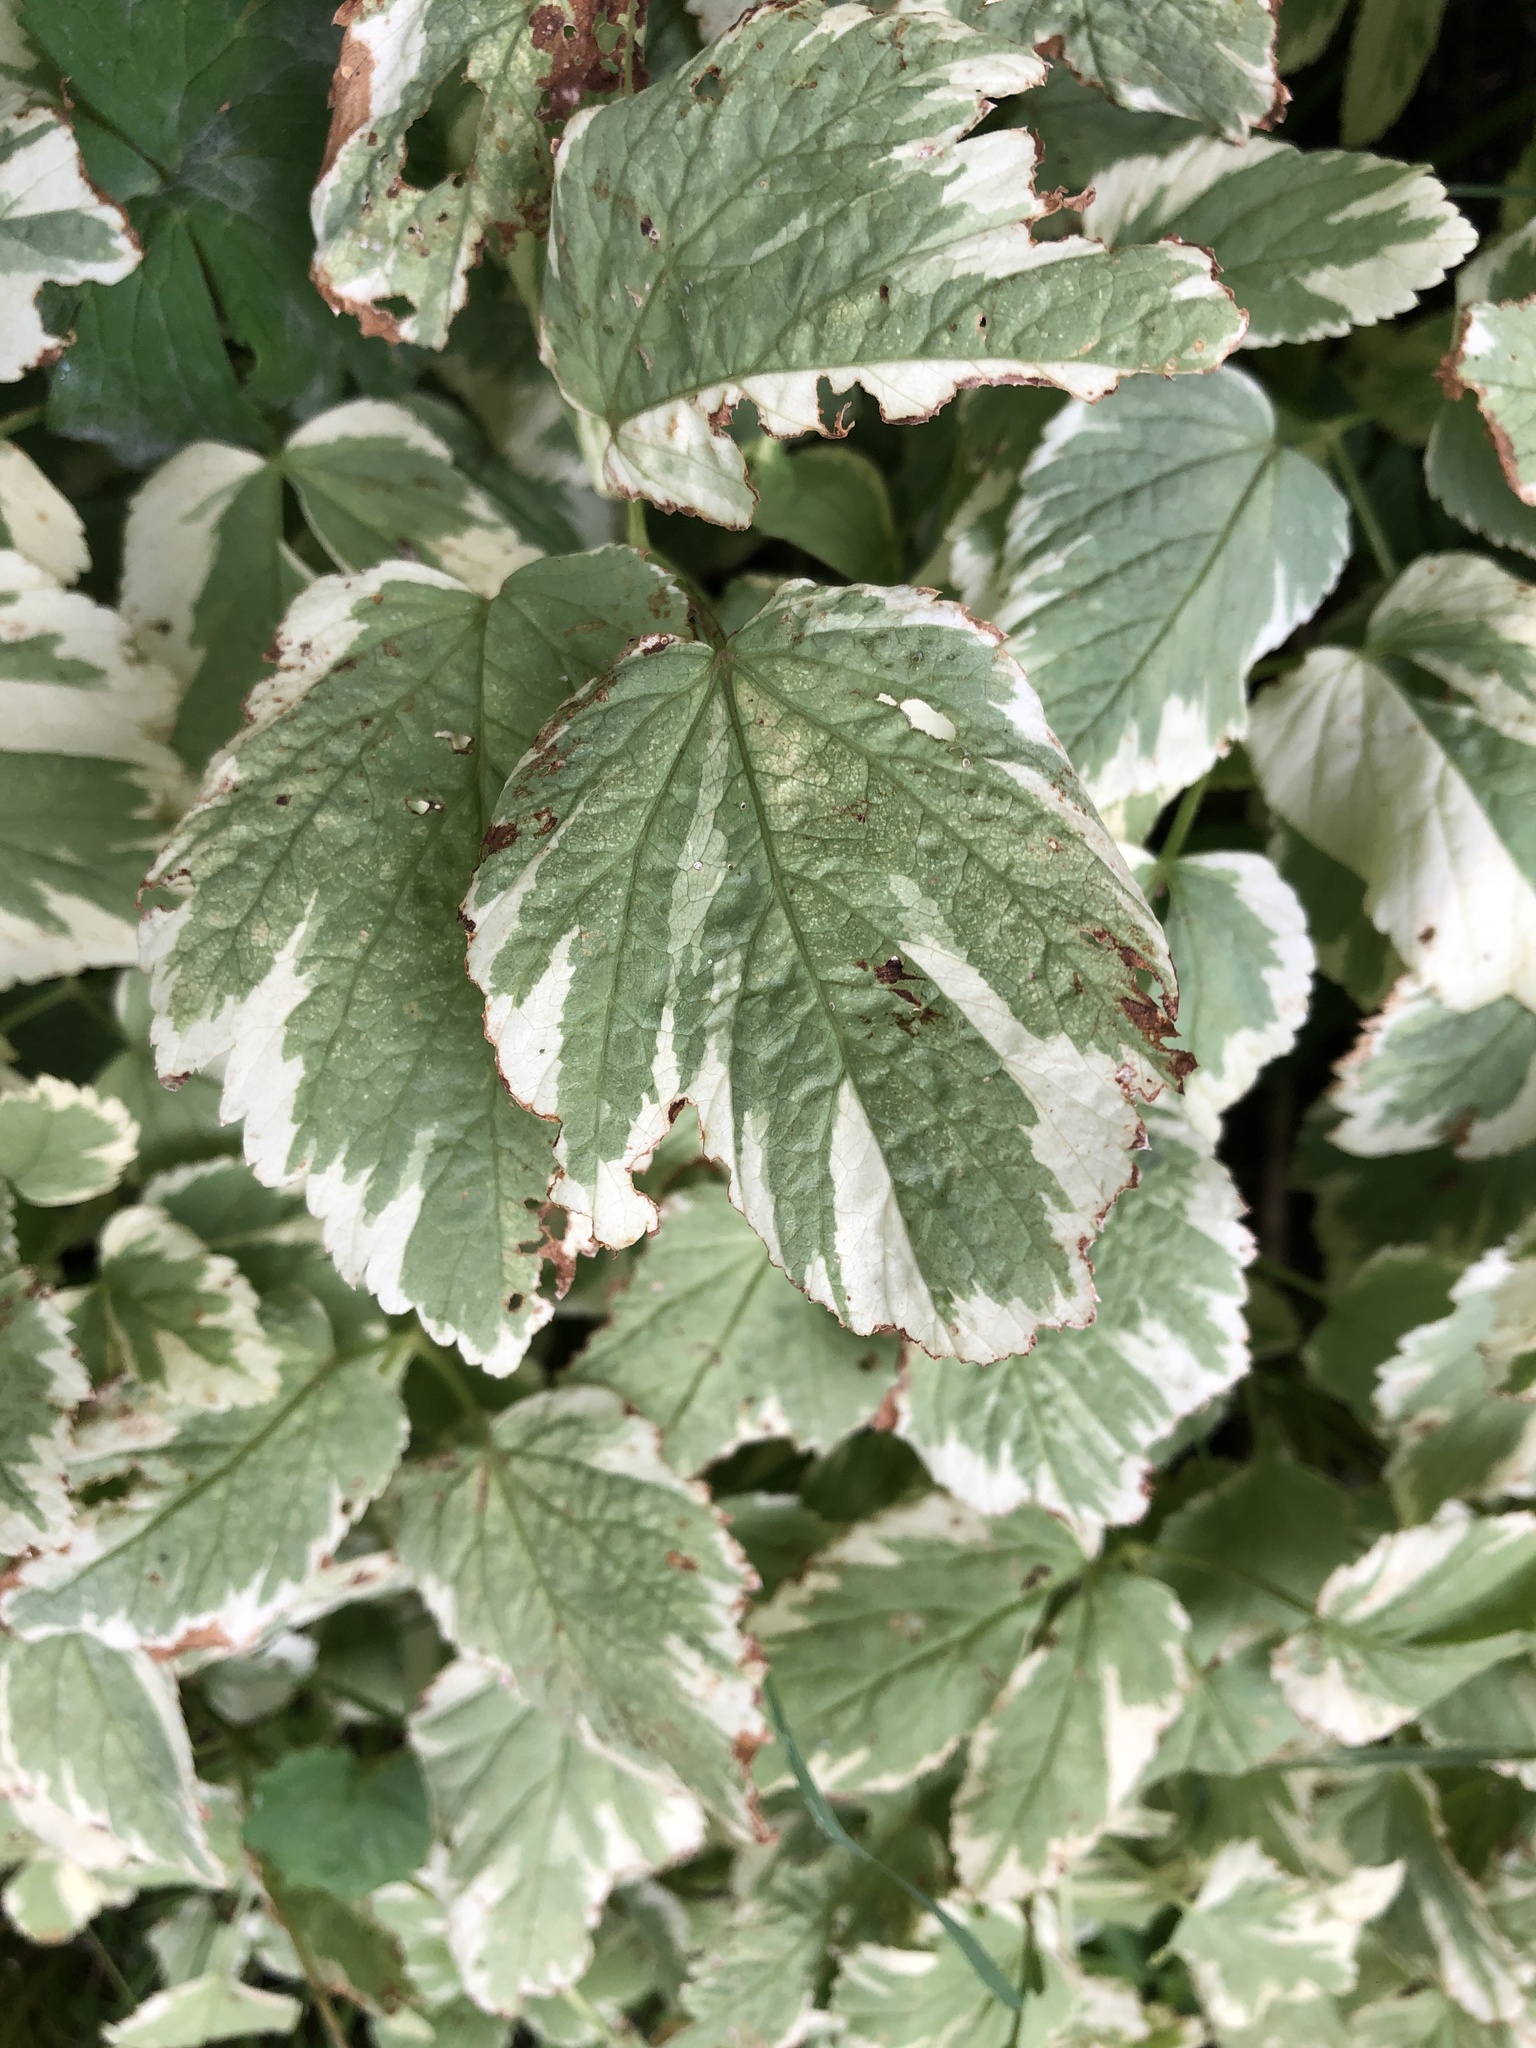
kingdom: Plantae
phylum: Tracheophyta
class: Magnoliopsida
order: Apiales
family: Apiaceae
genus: Aegopodium
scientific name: Aegopodium podagraria
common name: Ground-elder
